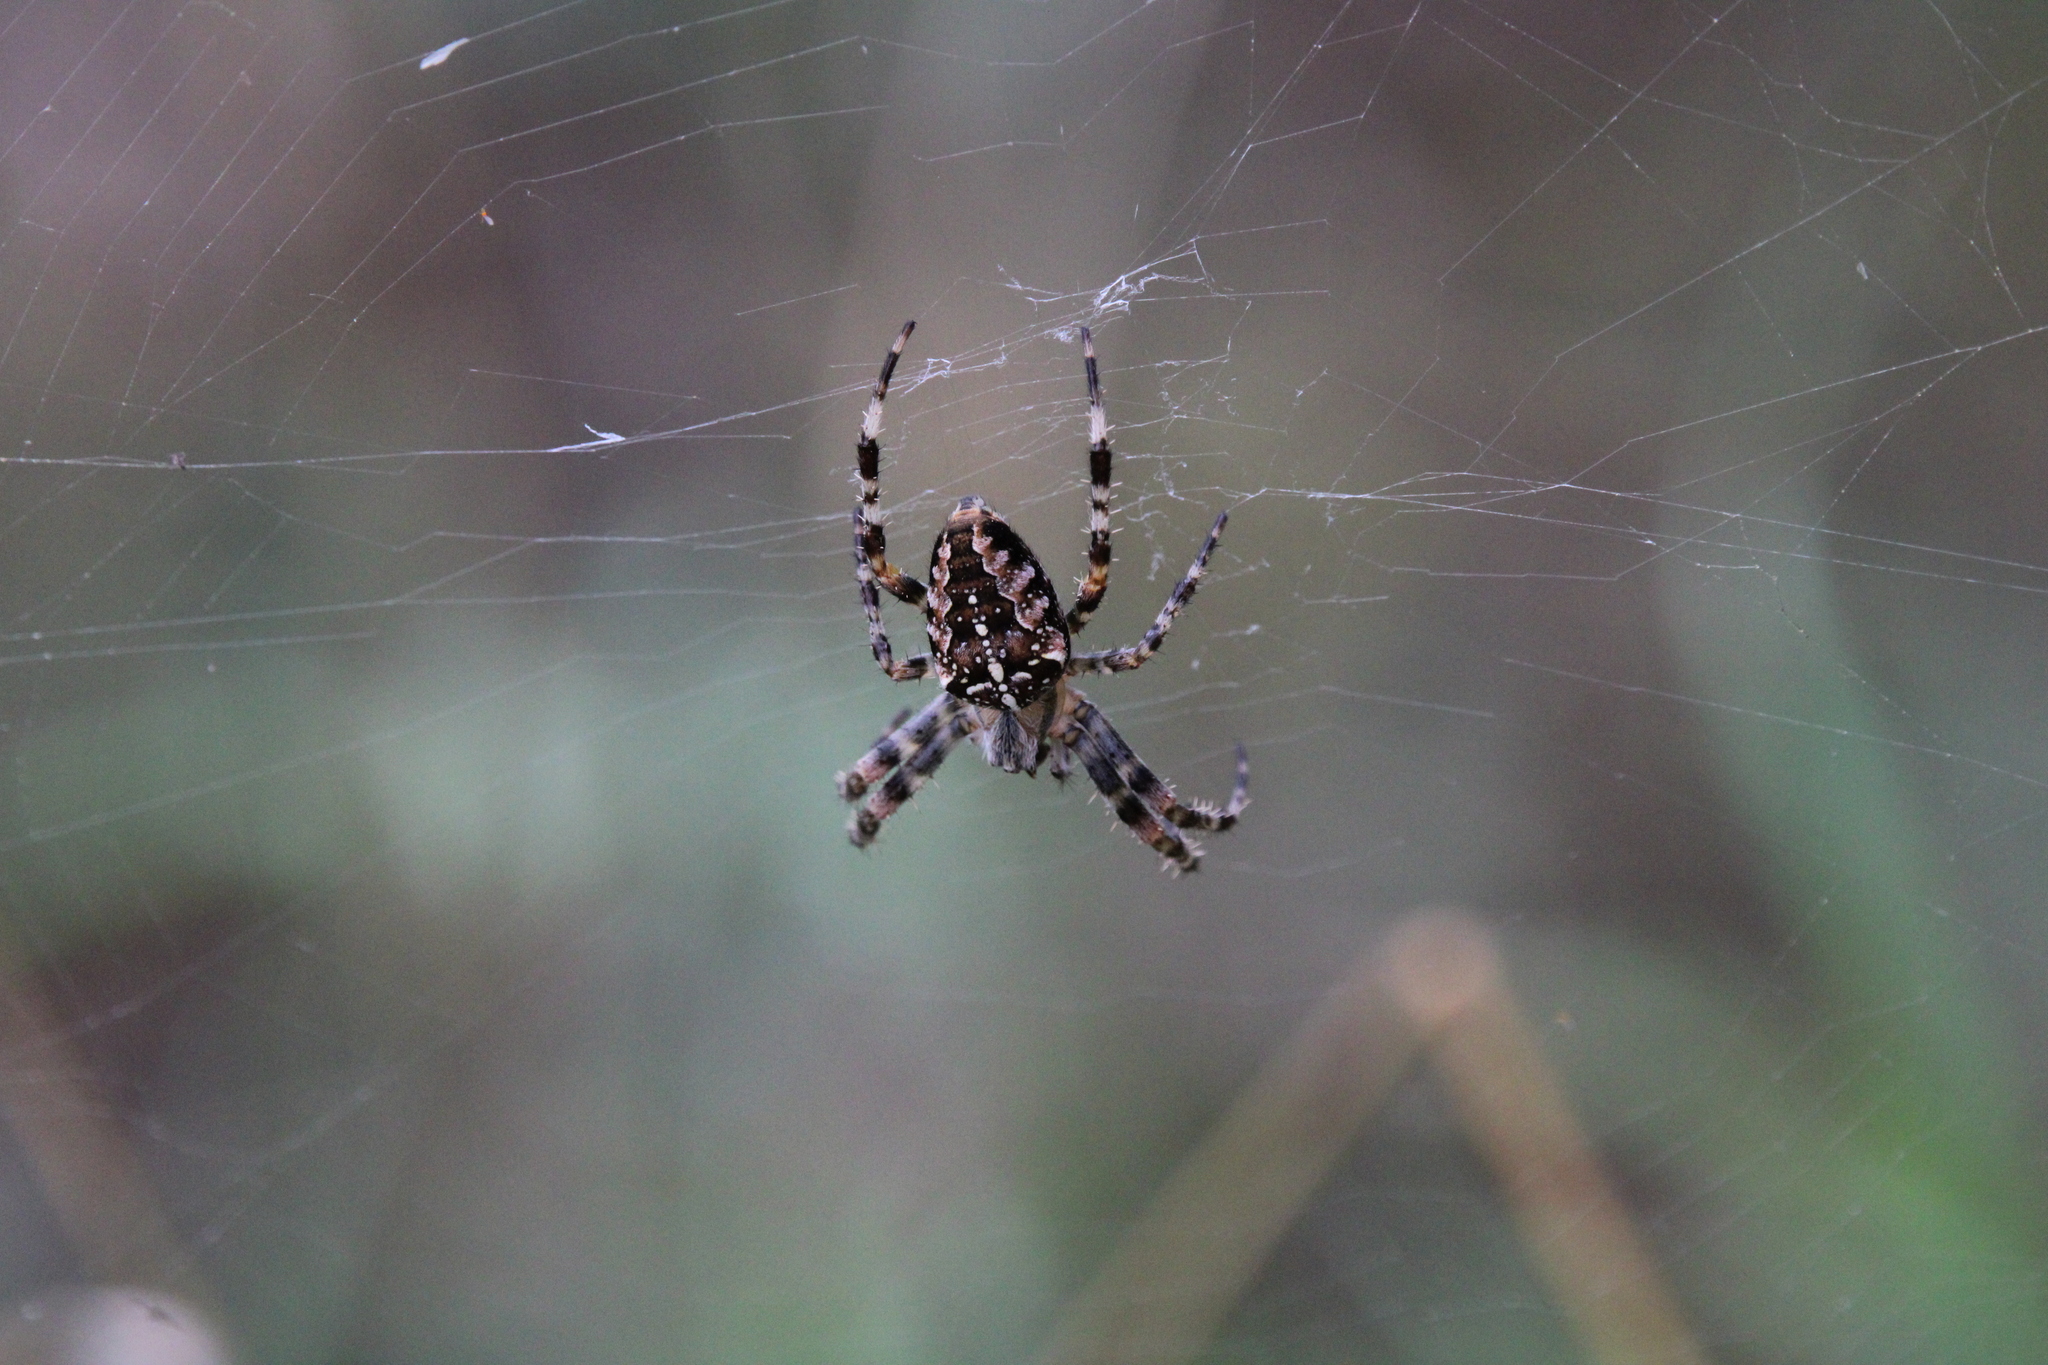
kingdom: Animalia
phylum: Arthropoda
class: Arachnida
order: Araneae
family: Araneidae
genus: Araneus
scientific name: Araneus diadematus
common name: Cross orbweaver
